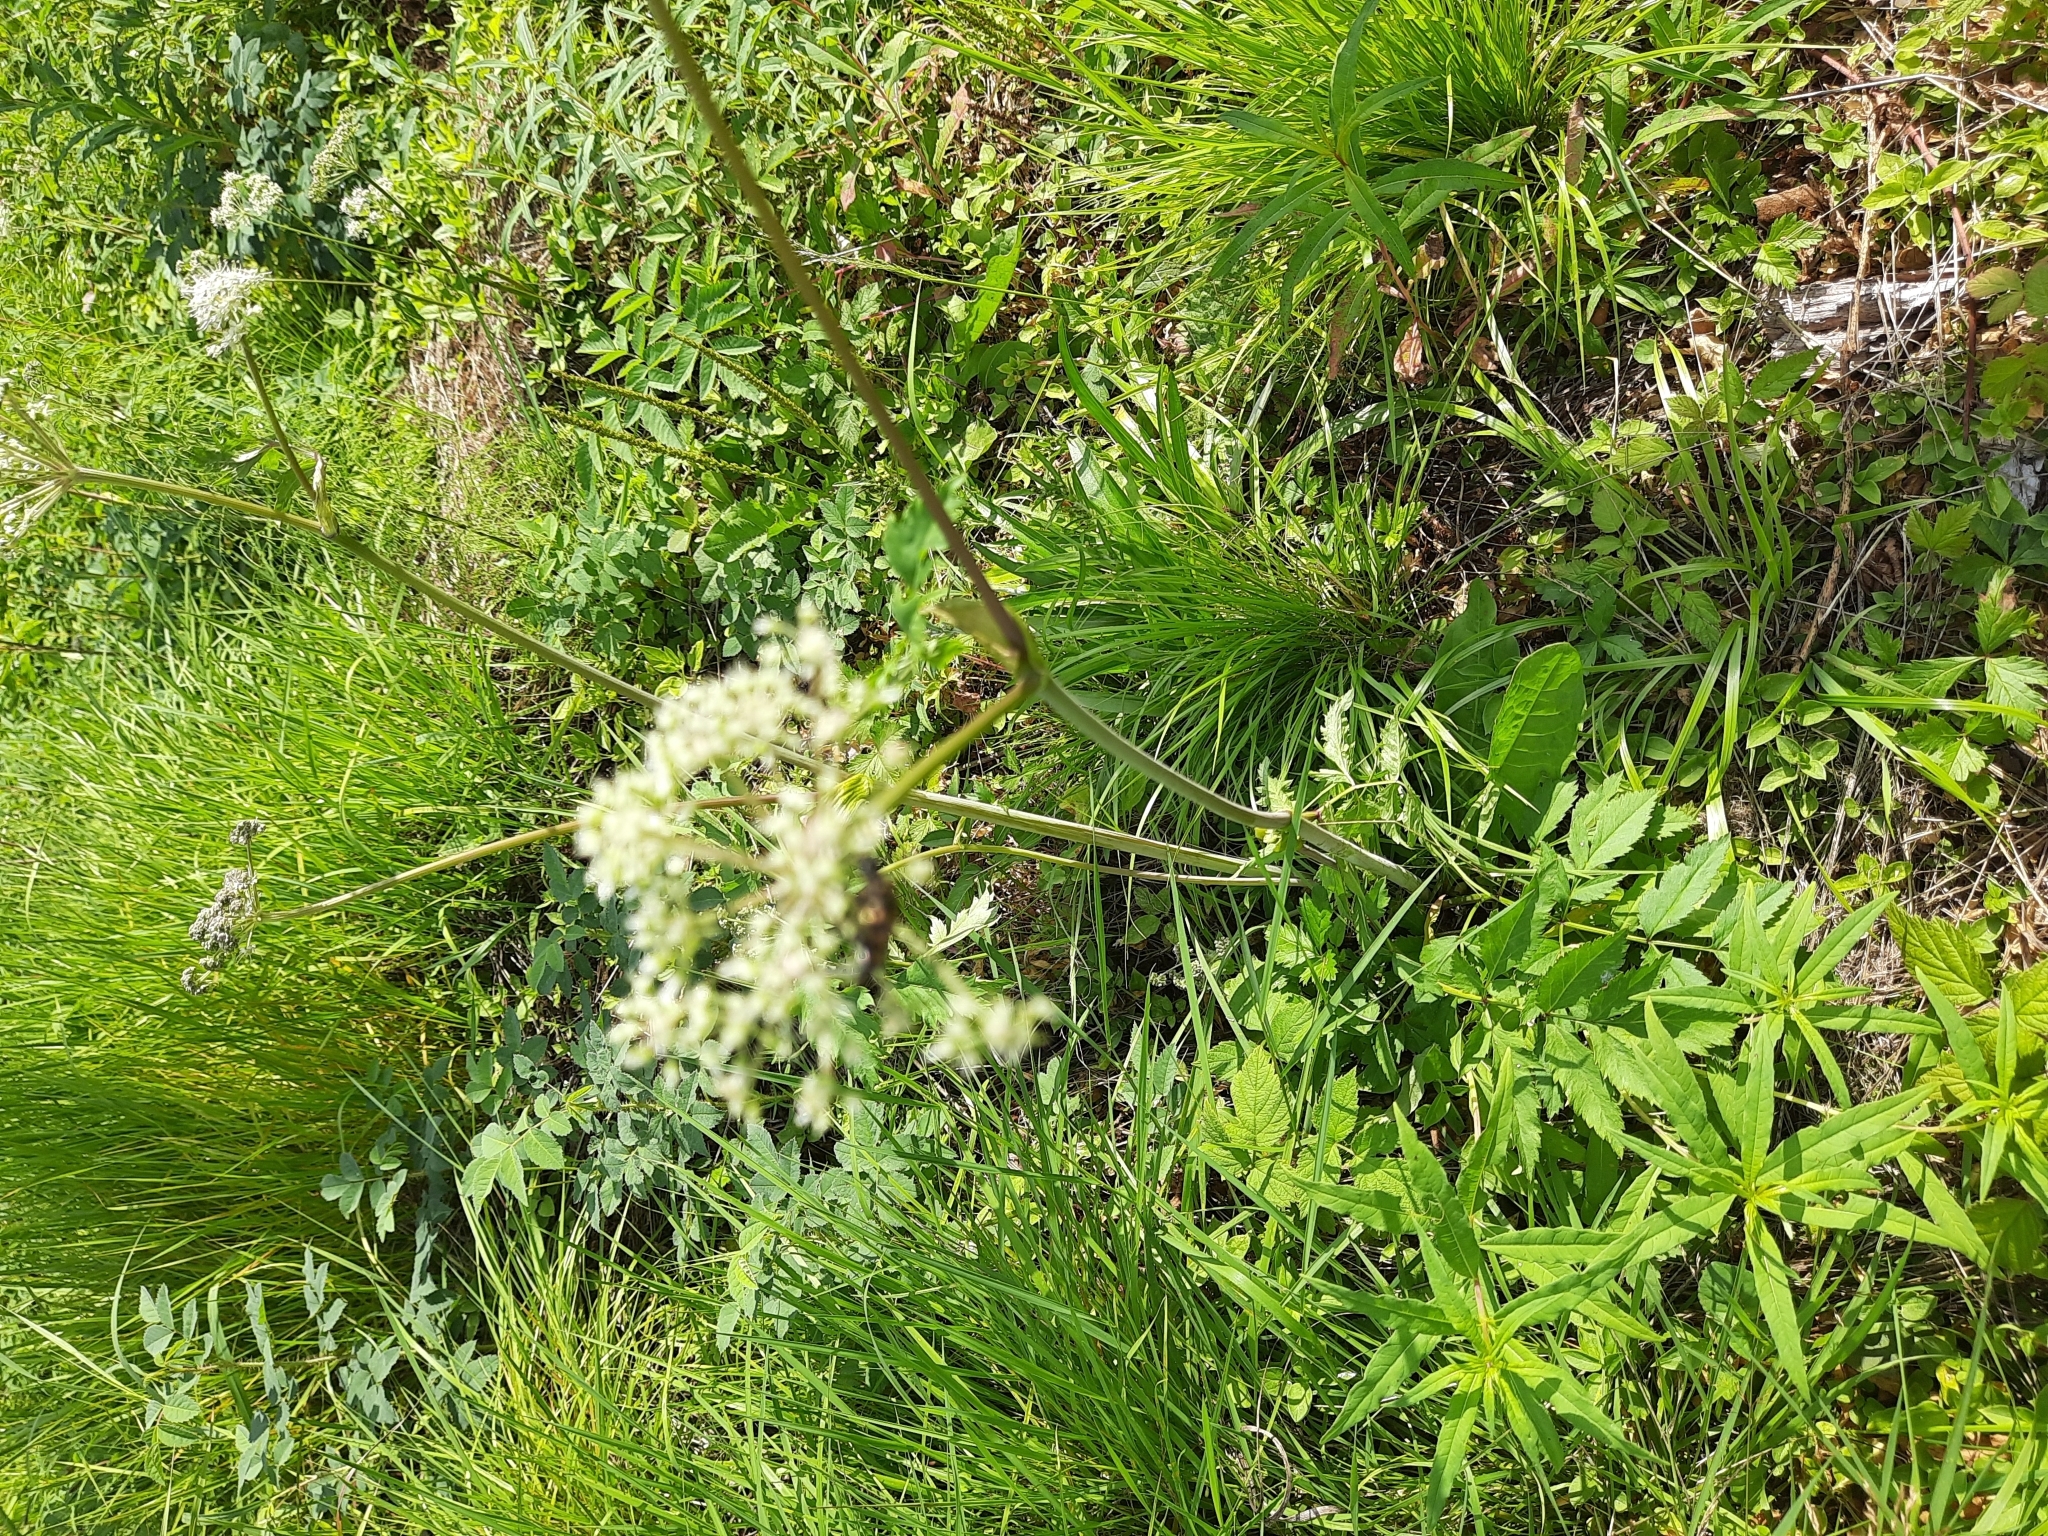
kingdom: Plantae
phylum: Tracheophyta
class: Magnoliopsida
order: Apiales
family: Apiaceae
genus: Angelica
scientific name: Angelica sylvestris
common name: Wild angelica
